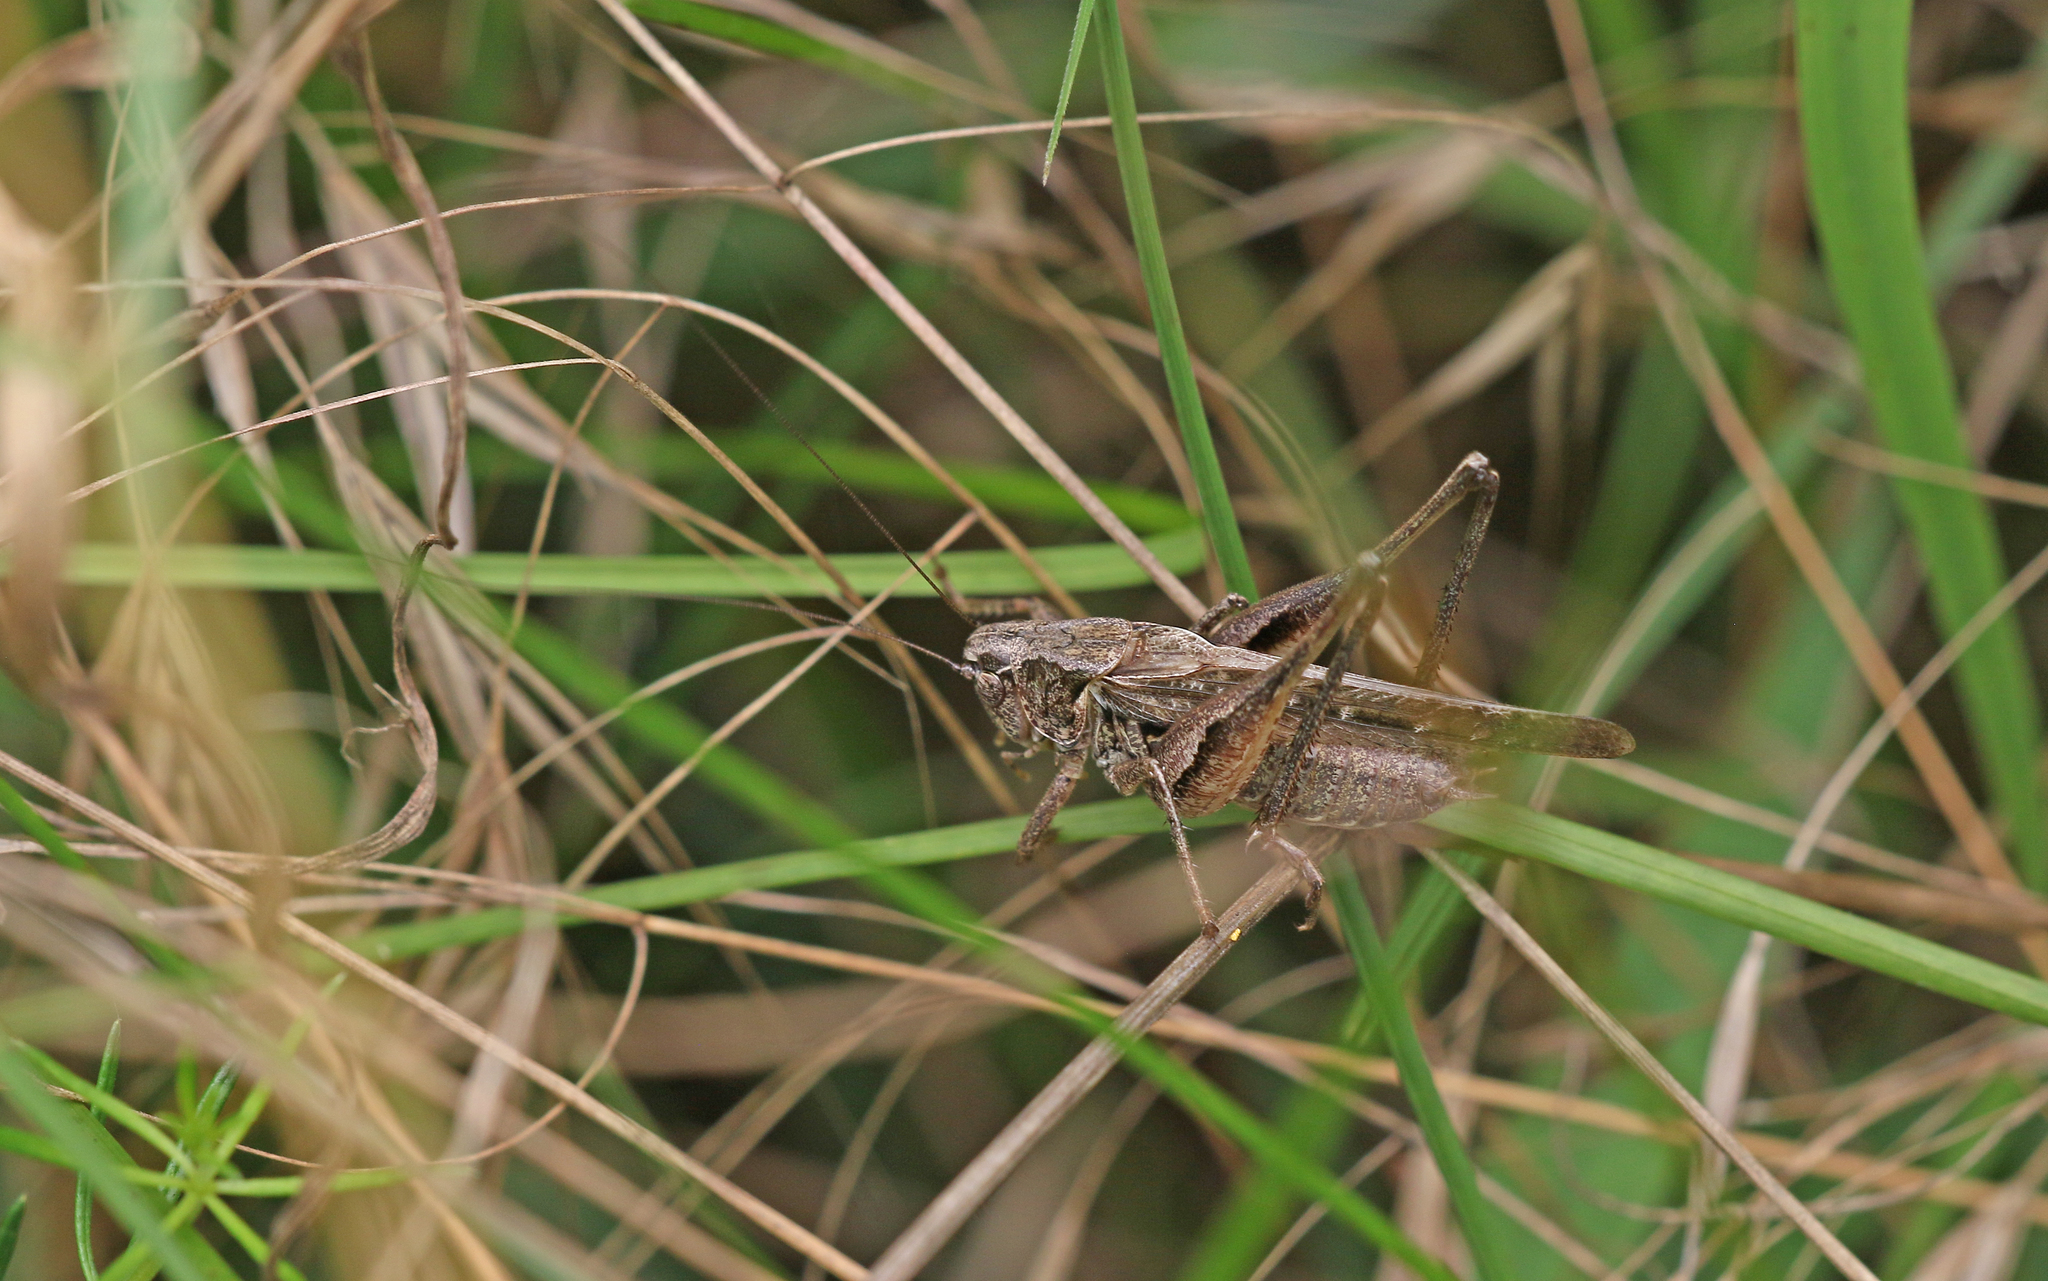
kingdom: Animalia
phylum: Arthropoda
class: Insecta
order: Orthoptera
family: Tettigoniidae
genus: Platycleis
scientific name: Platycleis albopunctata
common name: Grey bush-cricket
